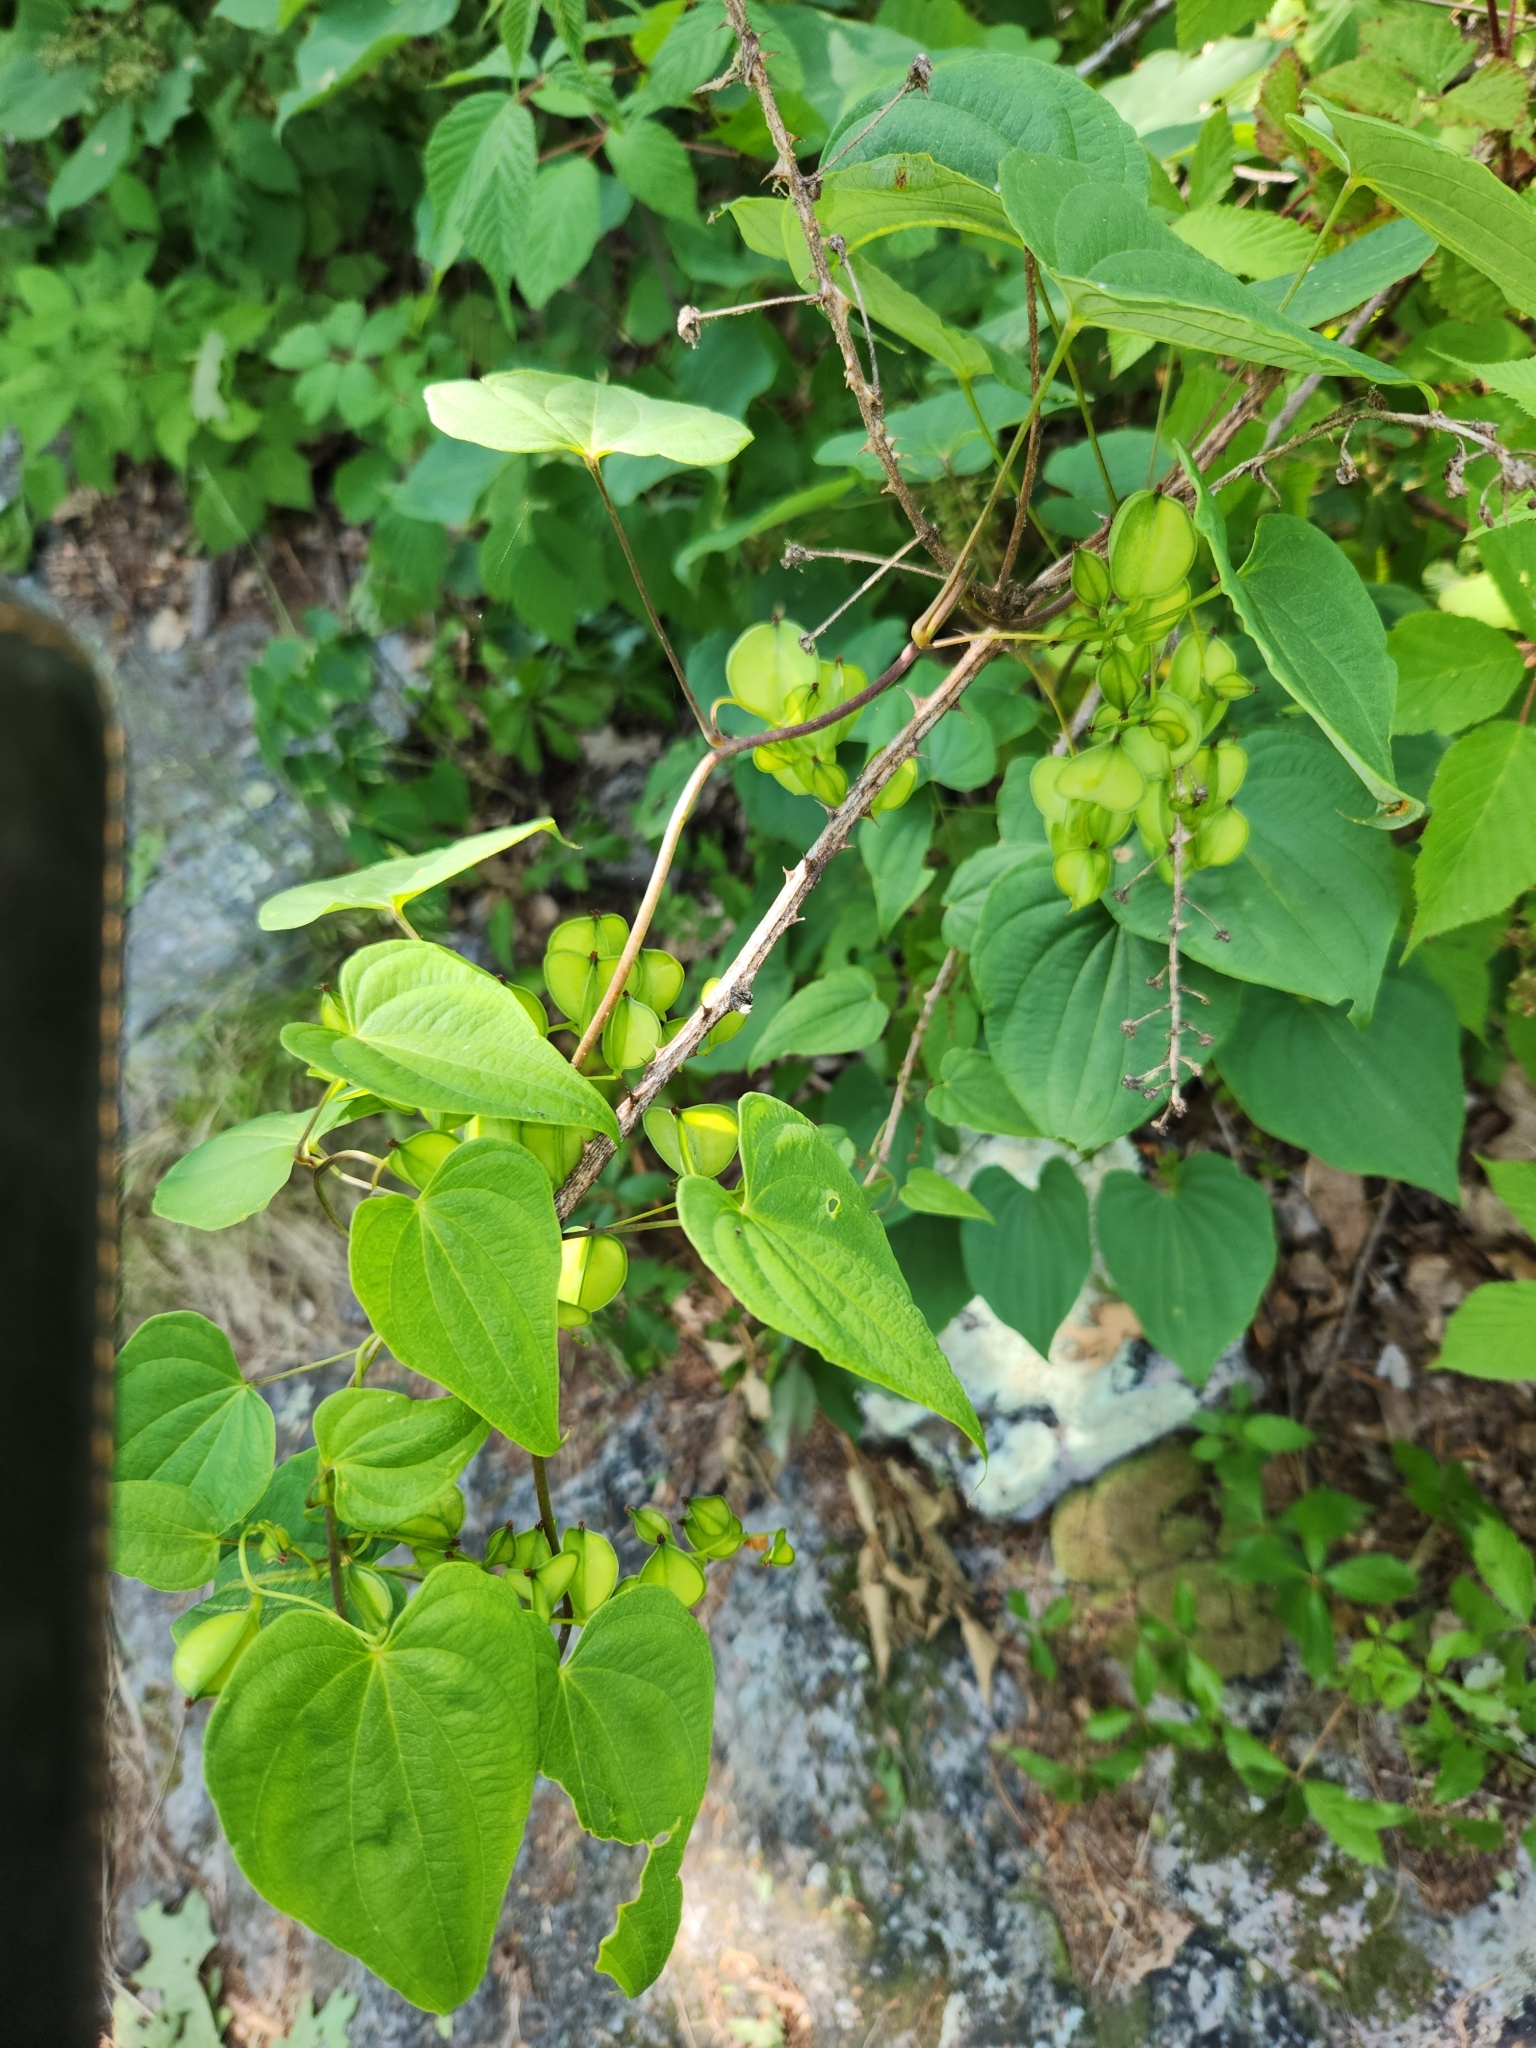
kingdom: Plantae
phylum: Tracheophyta
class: Liliopsida
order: Dioscoreales
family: Dioscoreaceae
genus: Dioscorea
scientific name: Dioscorea villosa
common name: Wild yam
